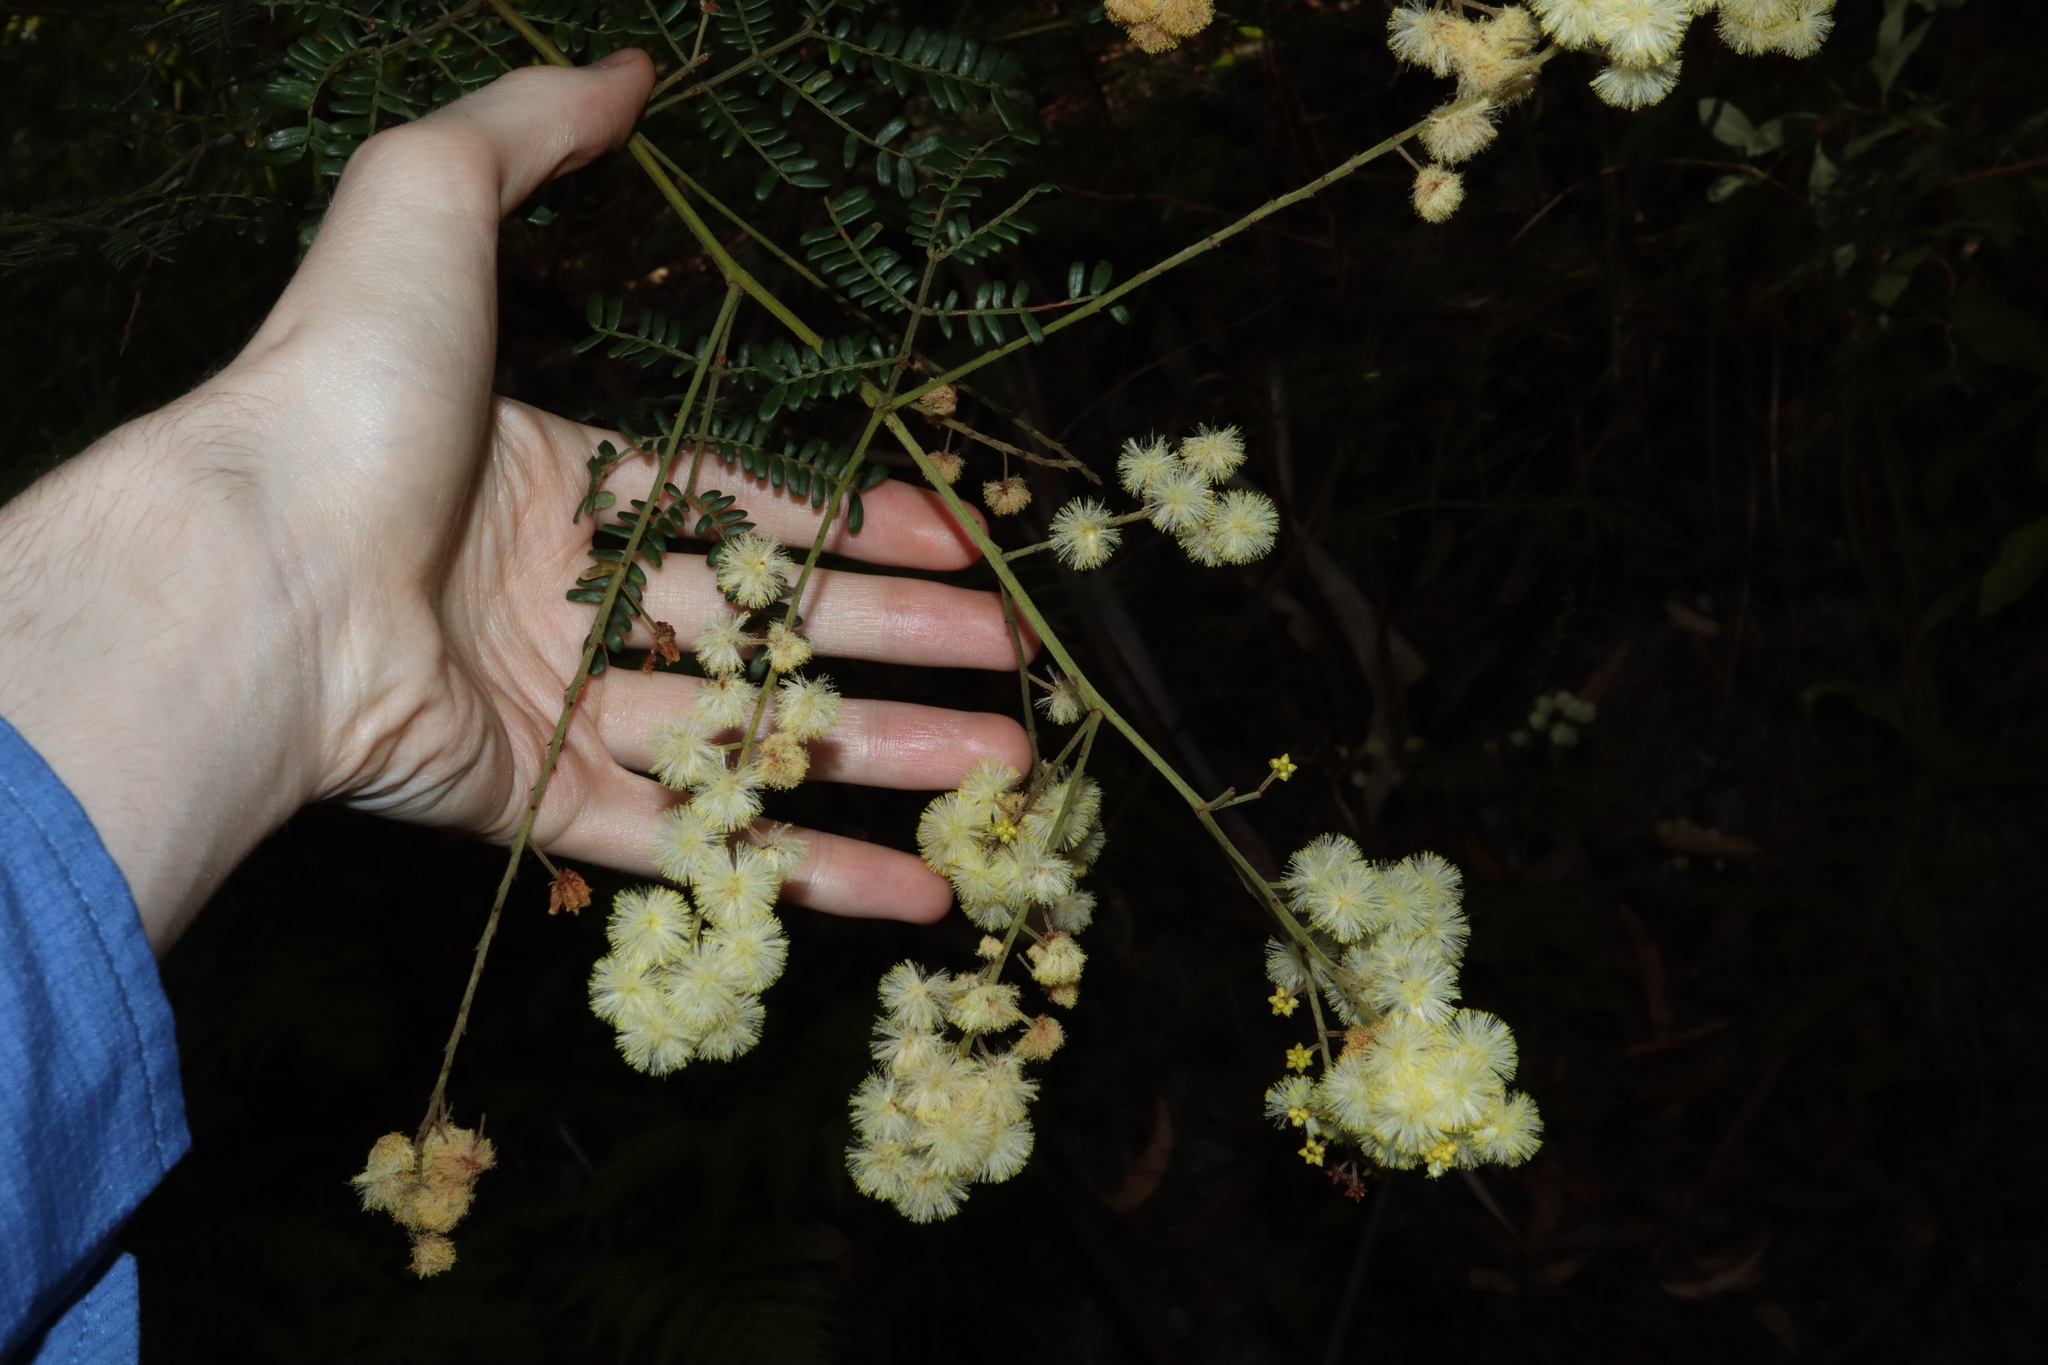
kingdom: Plantae
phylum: Tracheophyta
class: Magnoliopsida
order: Fabales
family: Fabaceae
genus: Acacia
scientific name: Acacia terminalis
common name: Cedar wattle
